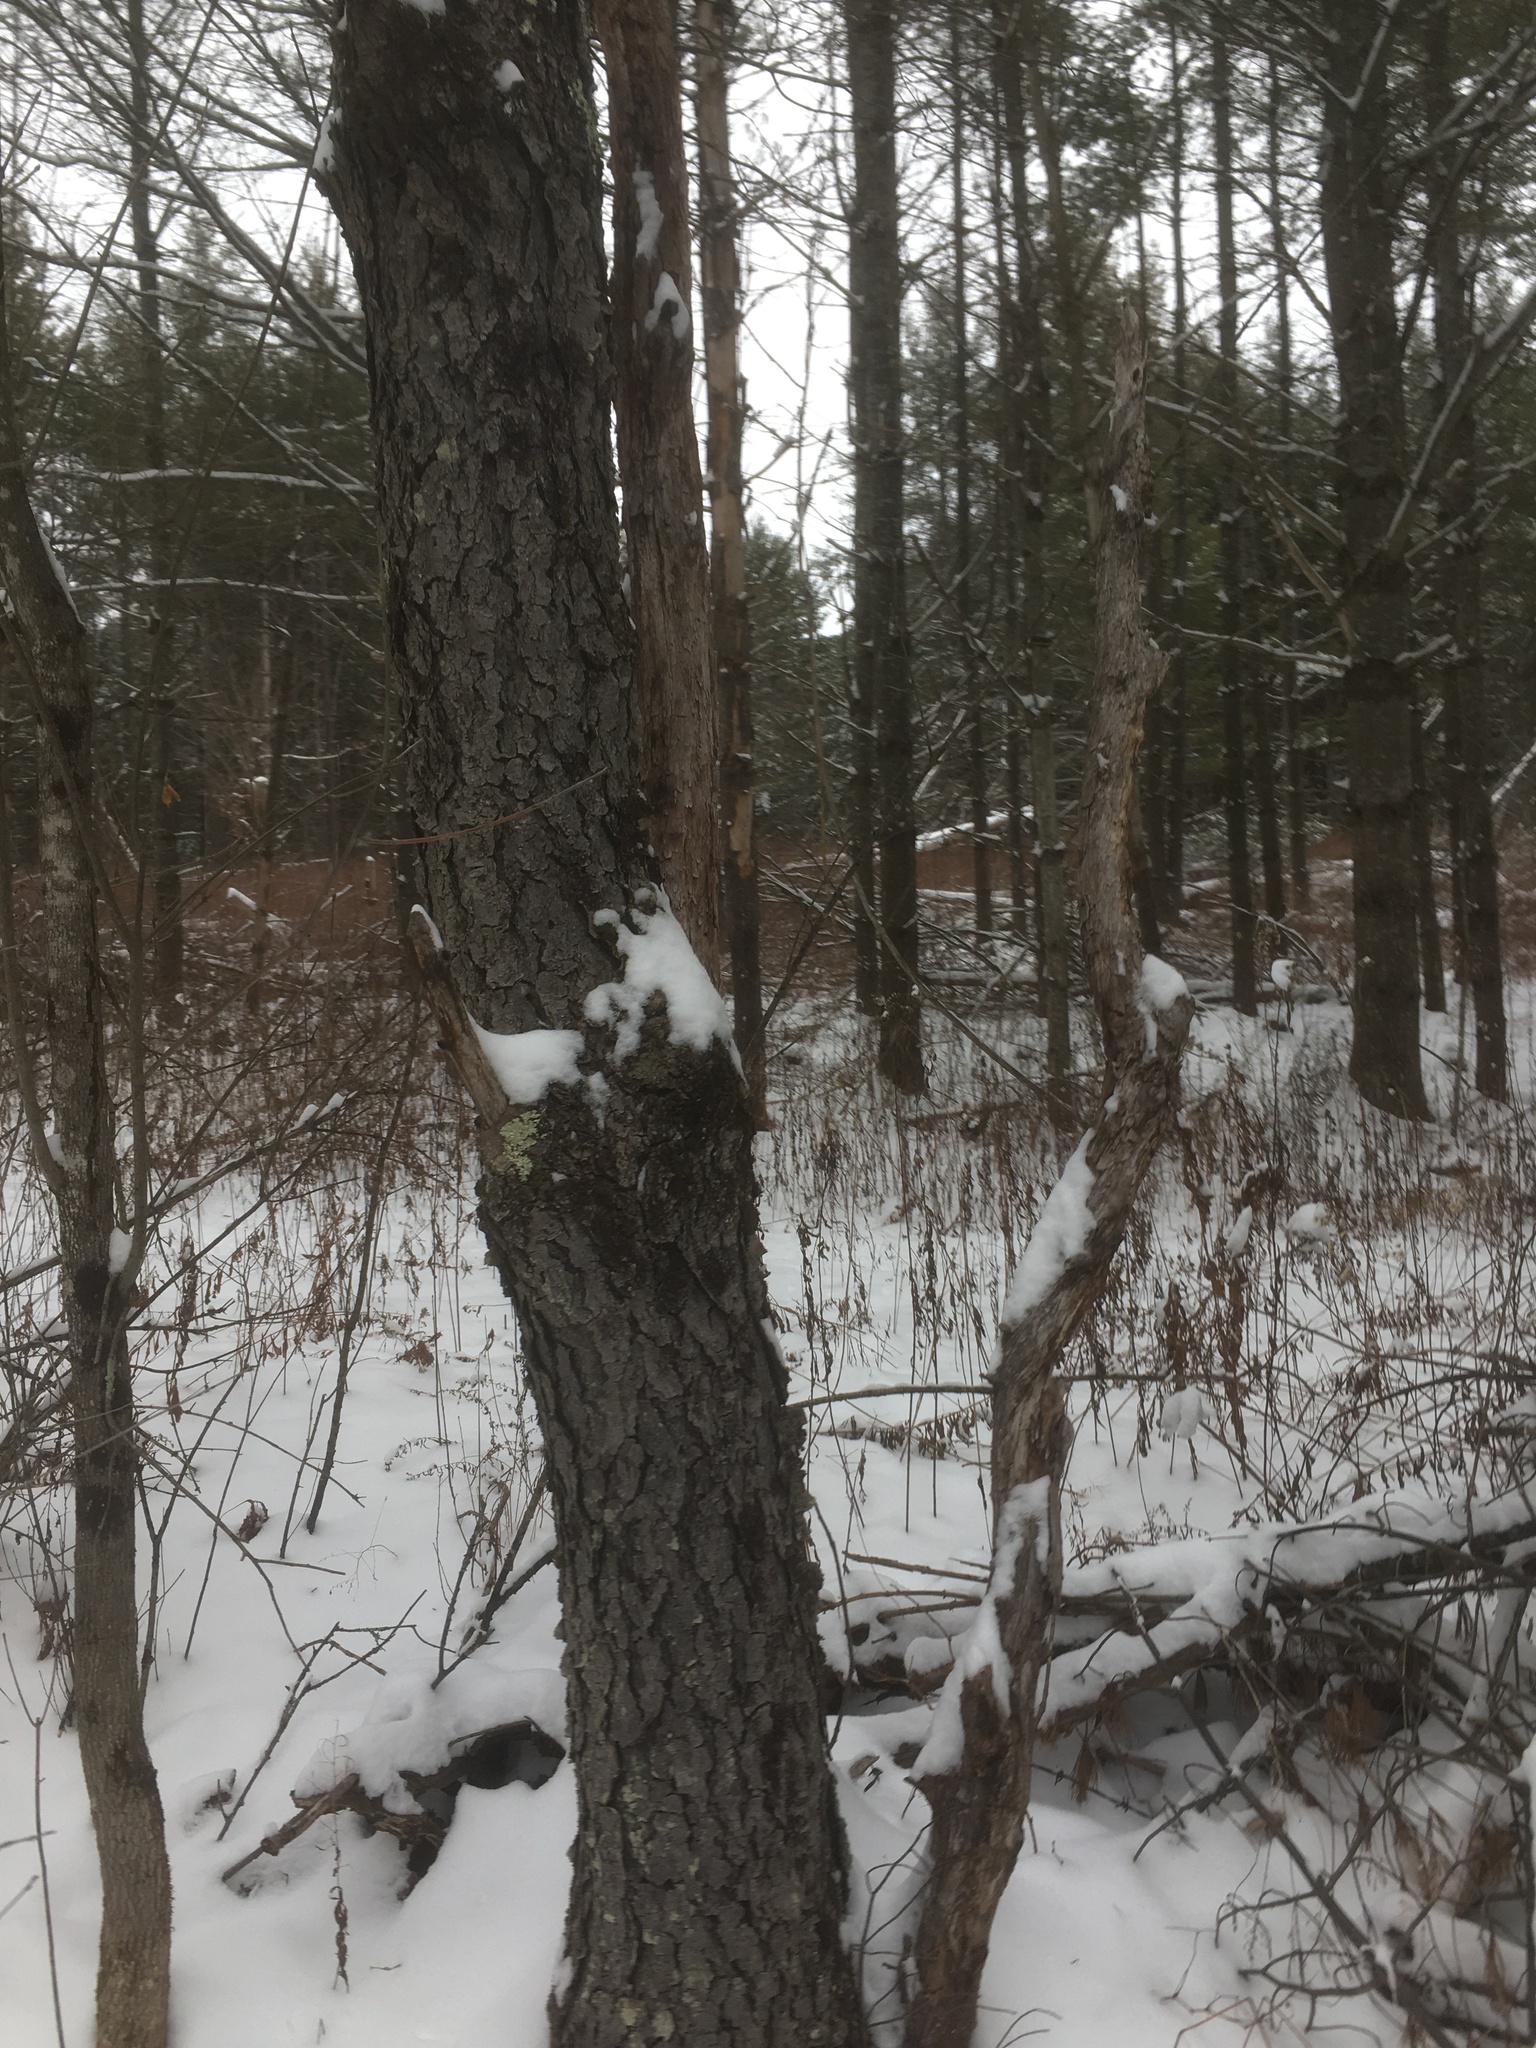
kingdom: Plantae
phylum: Tracheophyta
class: Magnoliopsida
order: Rosales
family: Rosaceae
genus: Prunus
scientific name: Prunus serotina
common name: Black cherry
